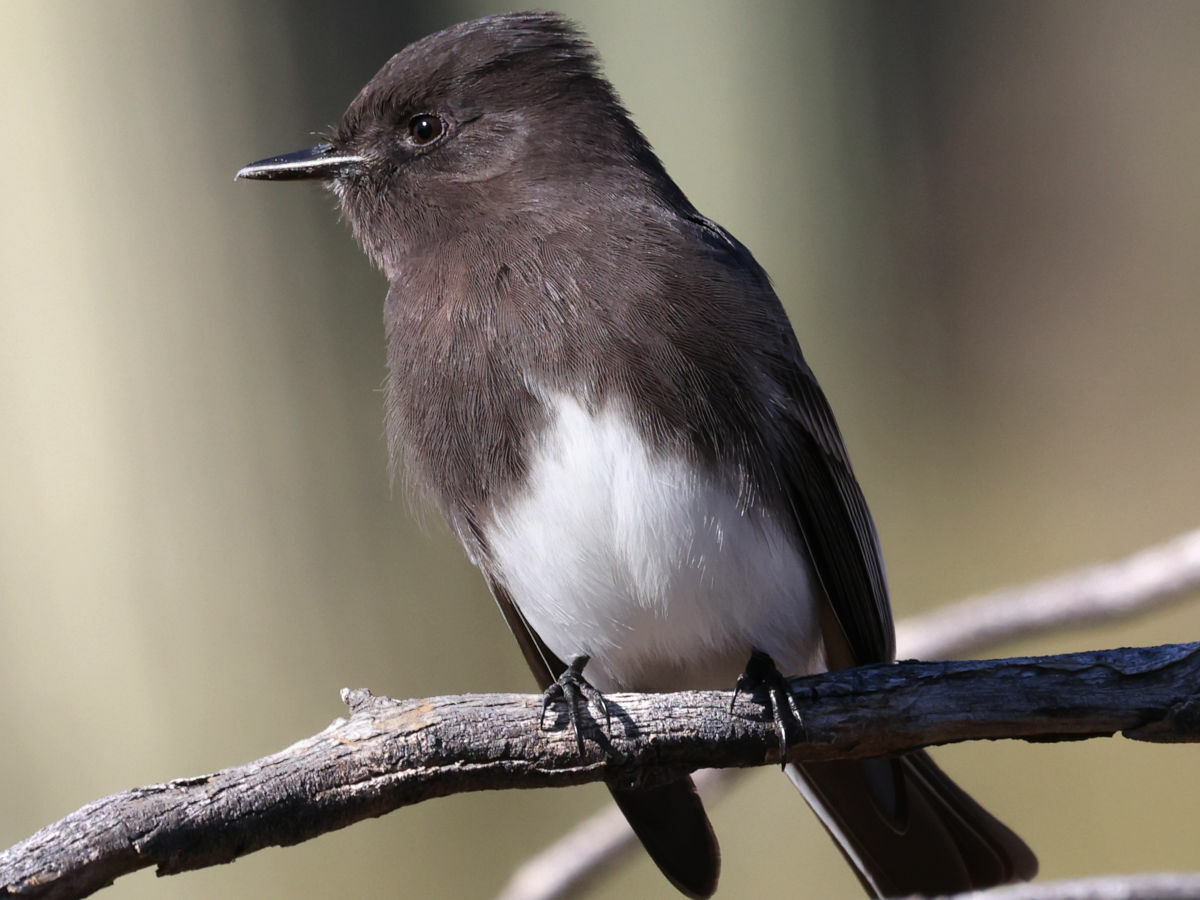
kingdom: Animalia
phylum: Chordata
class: Aves
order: Passeriformes
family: Tyrannidae
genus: Sayornis
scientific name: Sayornis nigricans
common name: Black phoebe
